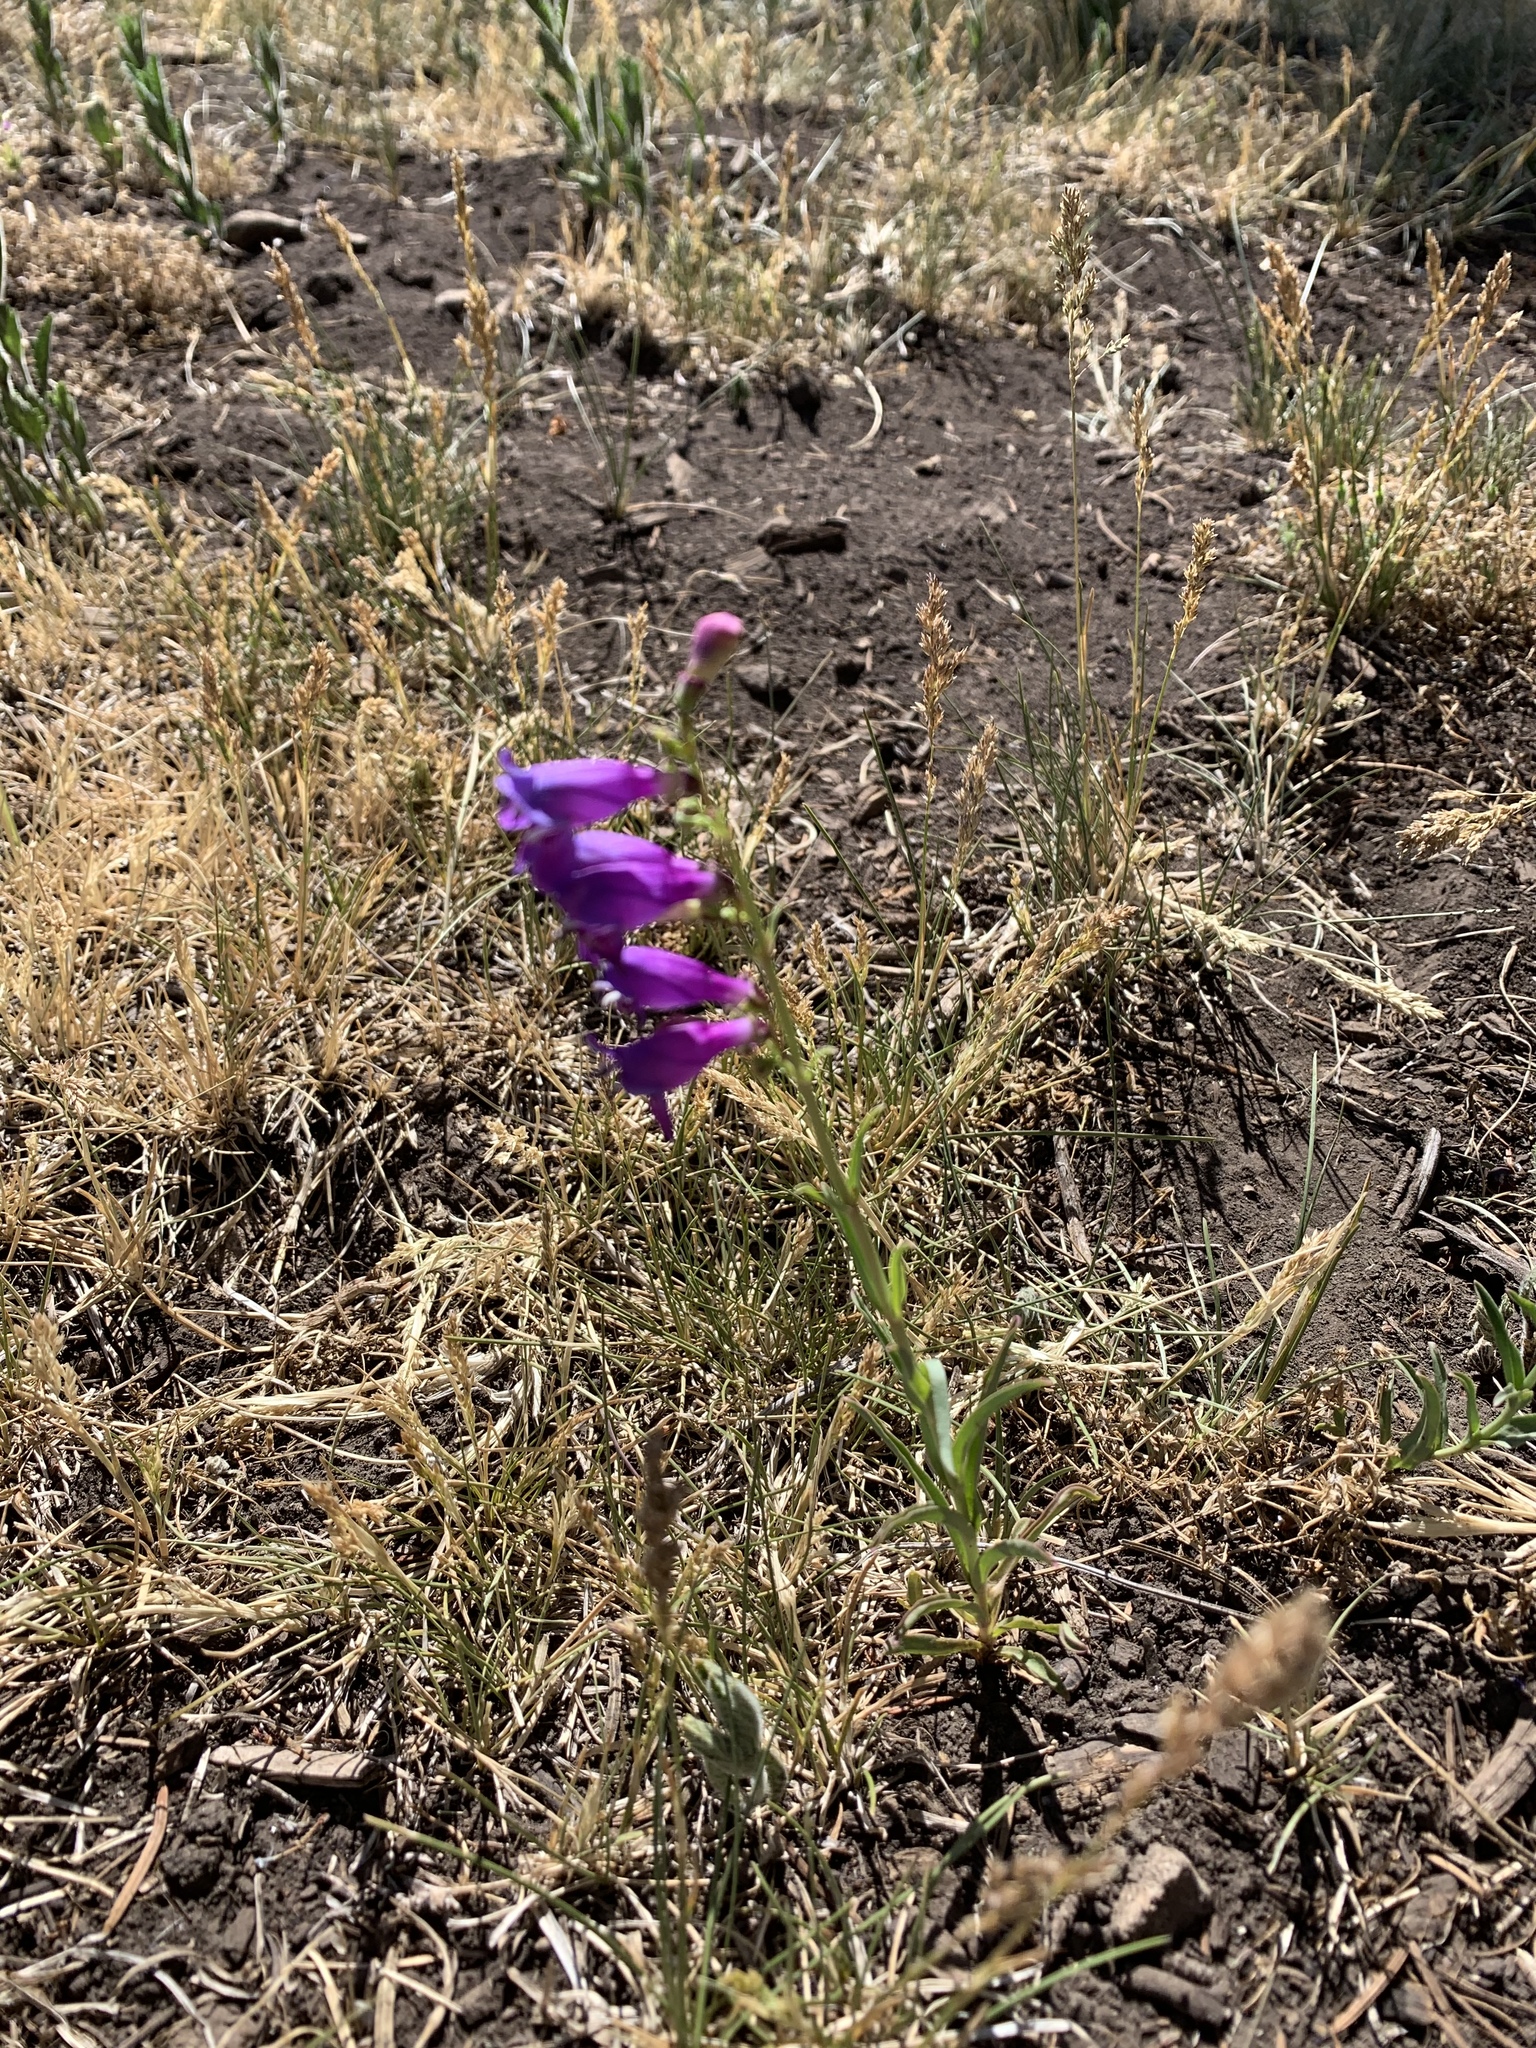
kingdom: Plantae
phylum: Tracheophyta
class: Magnoliopsida
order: Lamiales
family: Plantaginaceae
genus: Penstemon
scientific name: Penstemon neomexicanus
